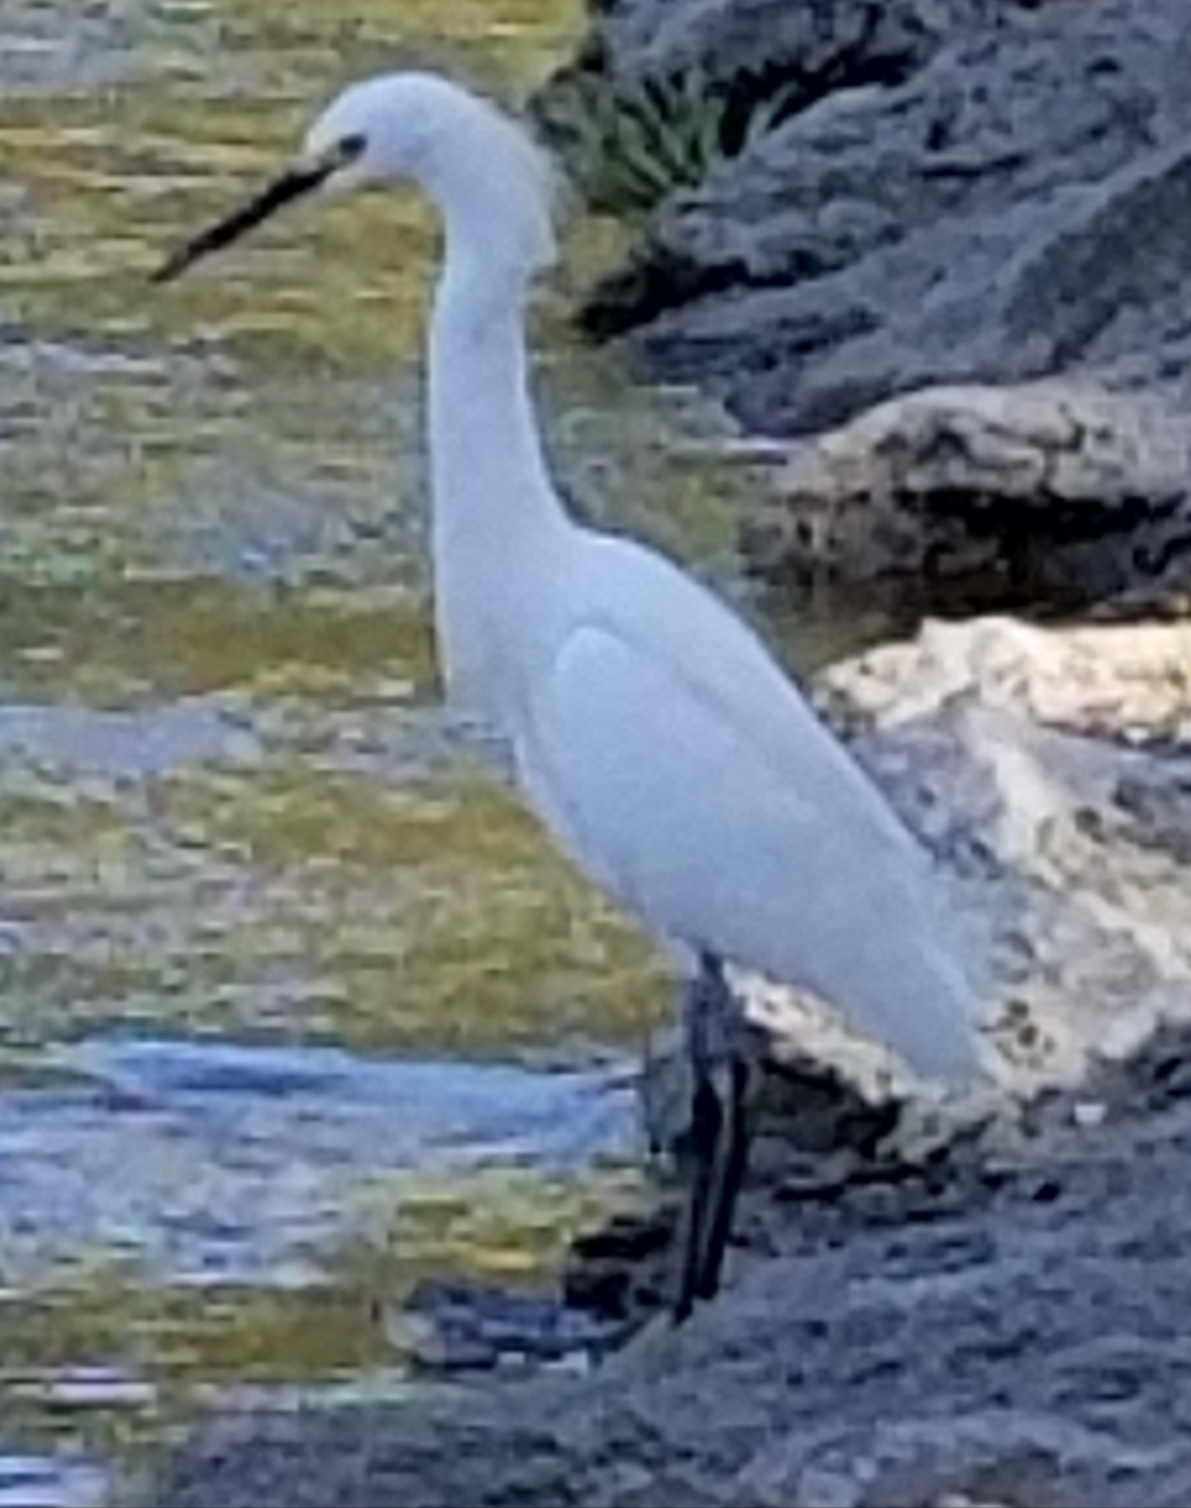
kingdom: Animalia
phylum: Chordata
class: Aves
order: Pelecaniformes
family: Ardeidae
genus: Egretta
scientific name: Egretta thula
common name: Snowy egret
